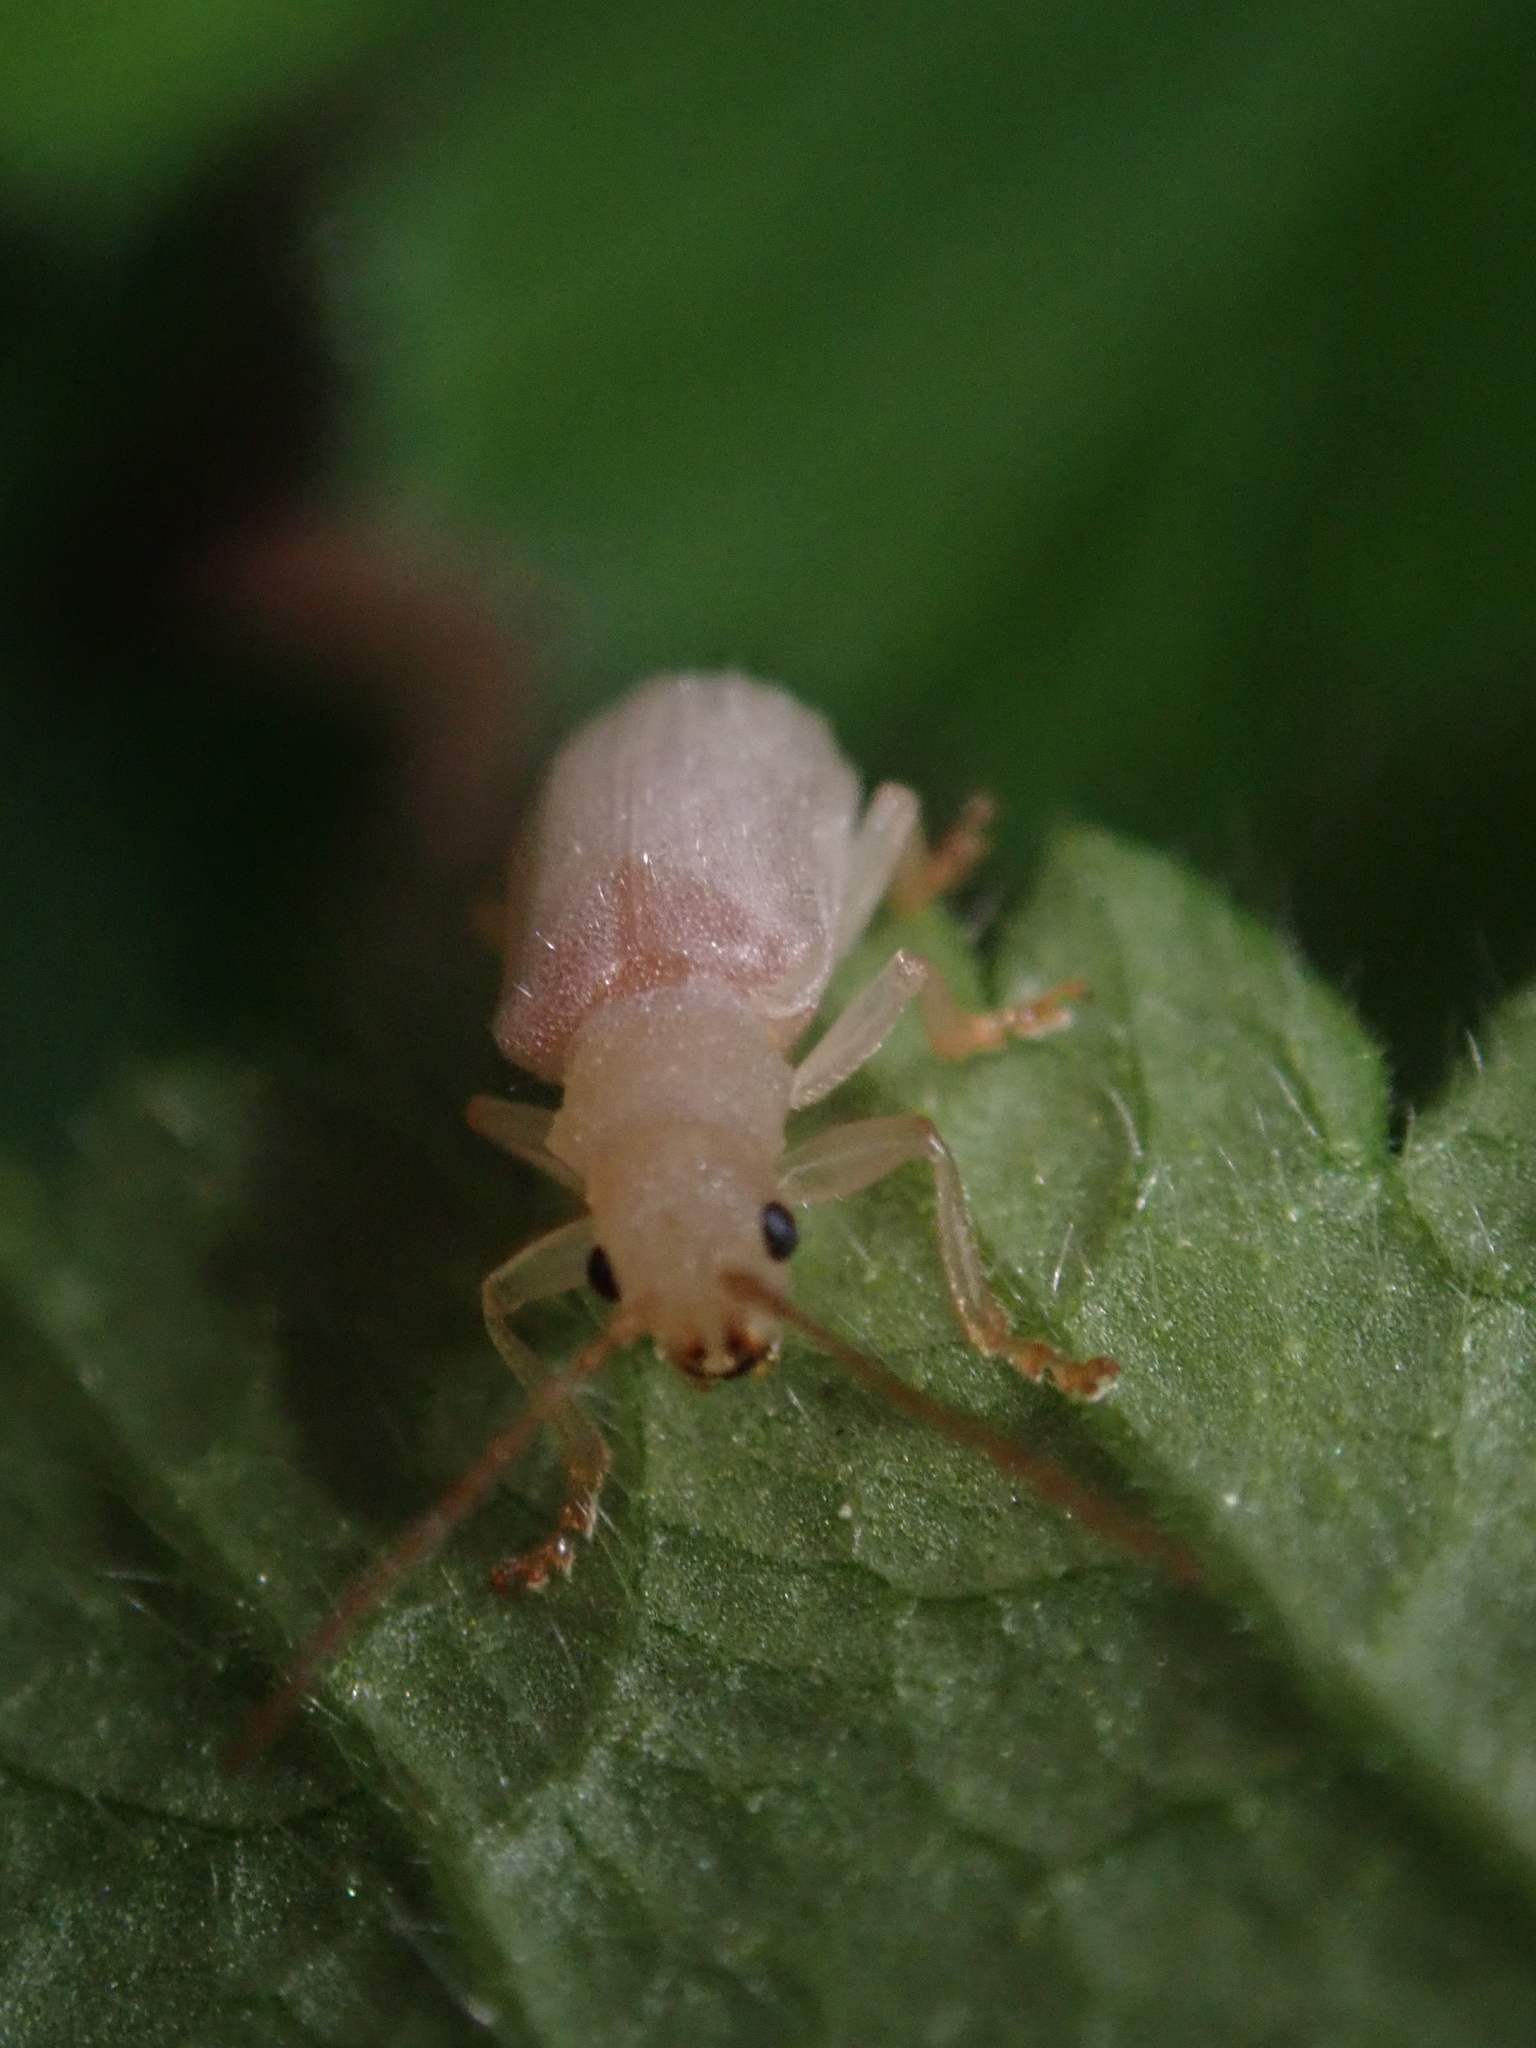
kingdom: Animalia
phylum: Arthropoda
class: Insecta
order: Coleoptera
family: Chrysomelidae
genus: Syneta
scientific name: Syneta albida
